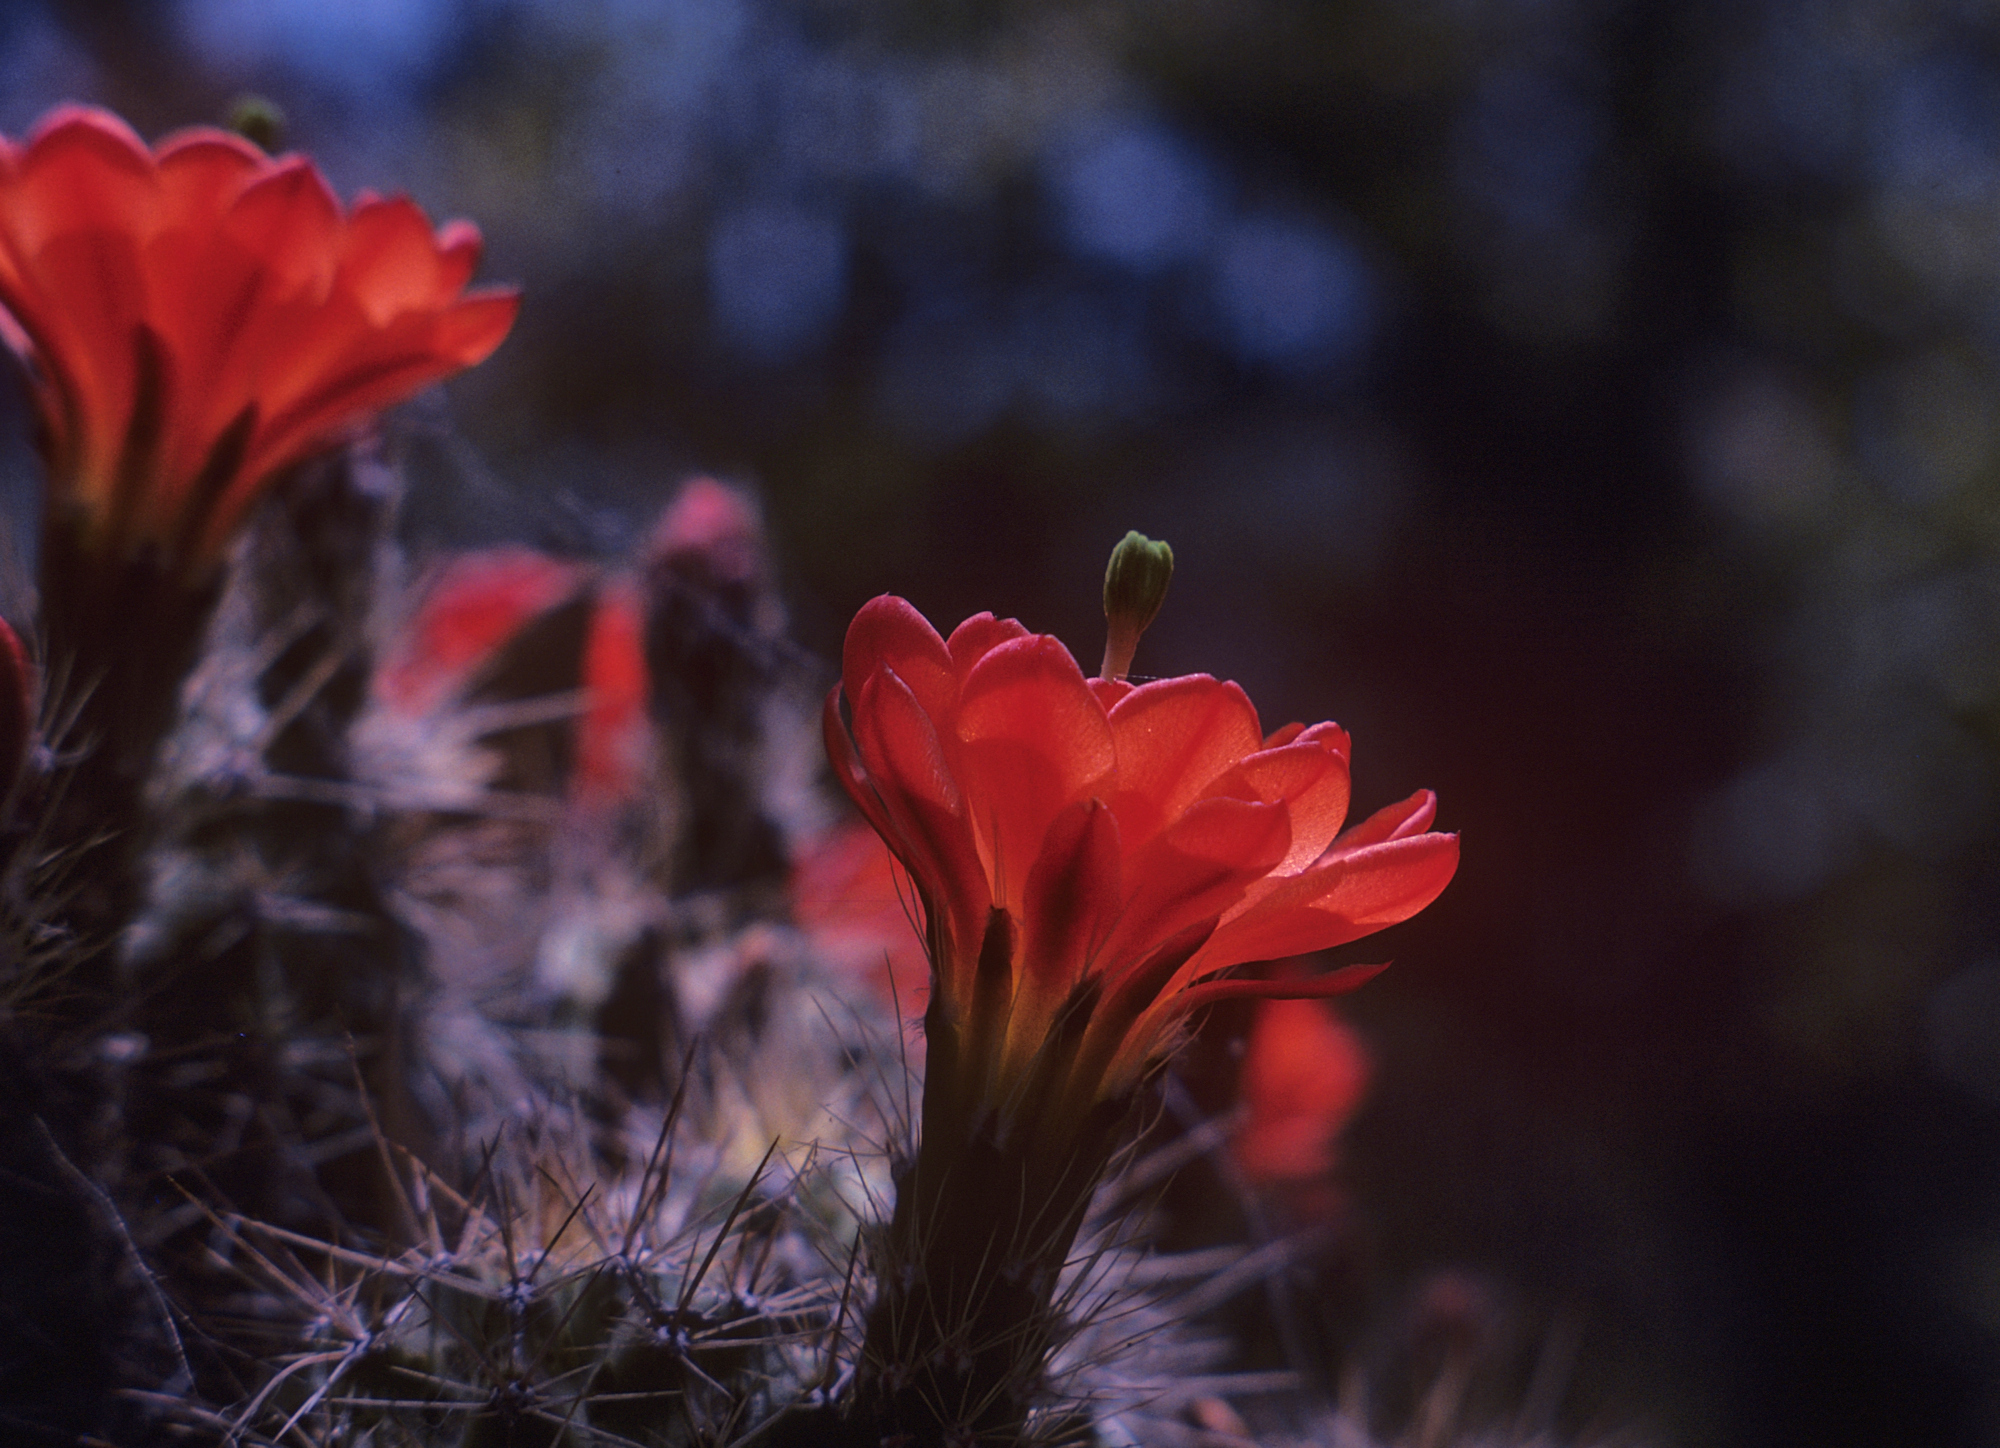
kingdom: Plantae
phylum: Tracheophyta
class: Magnoliopsida
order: Caryophyllales
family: Cactaceae
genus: Echinocereus
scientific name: Echinocereus coccineus
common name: Scarlet hedgehog cactus
